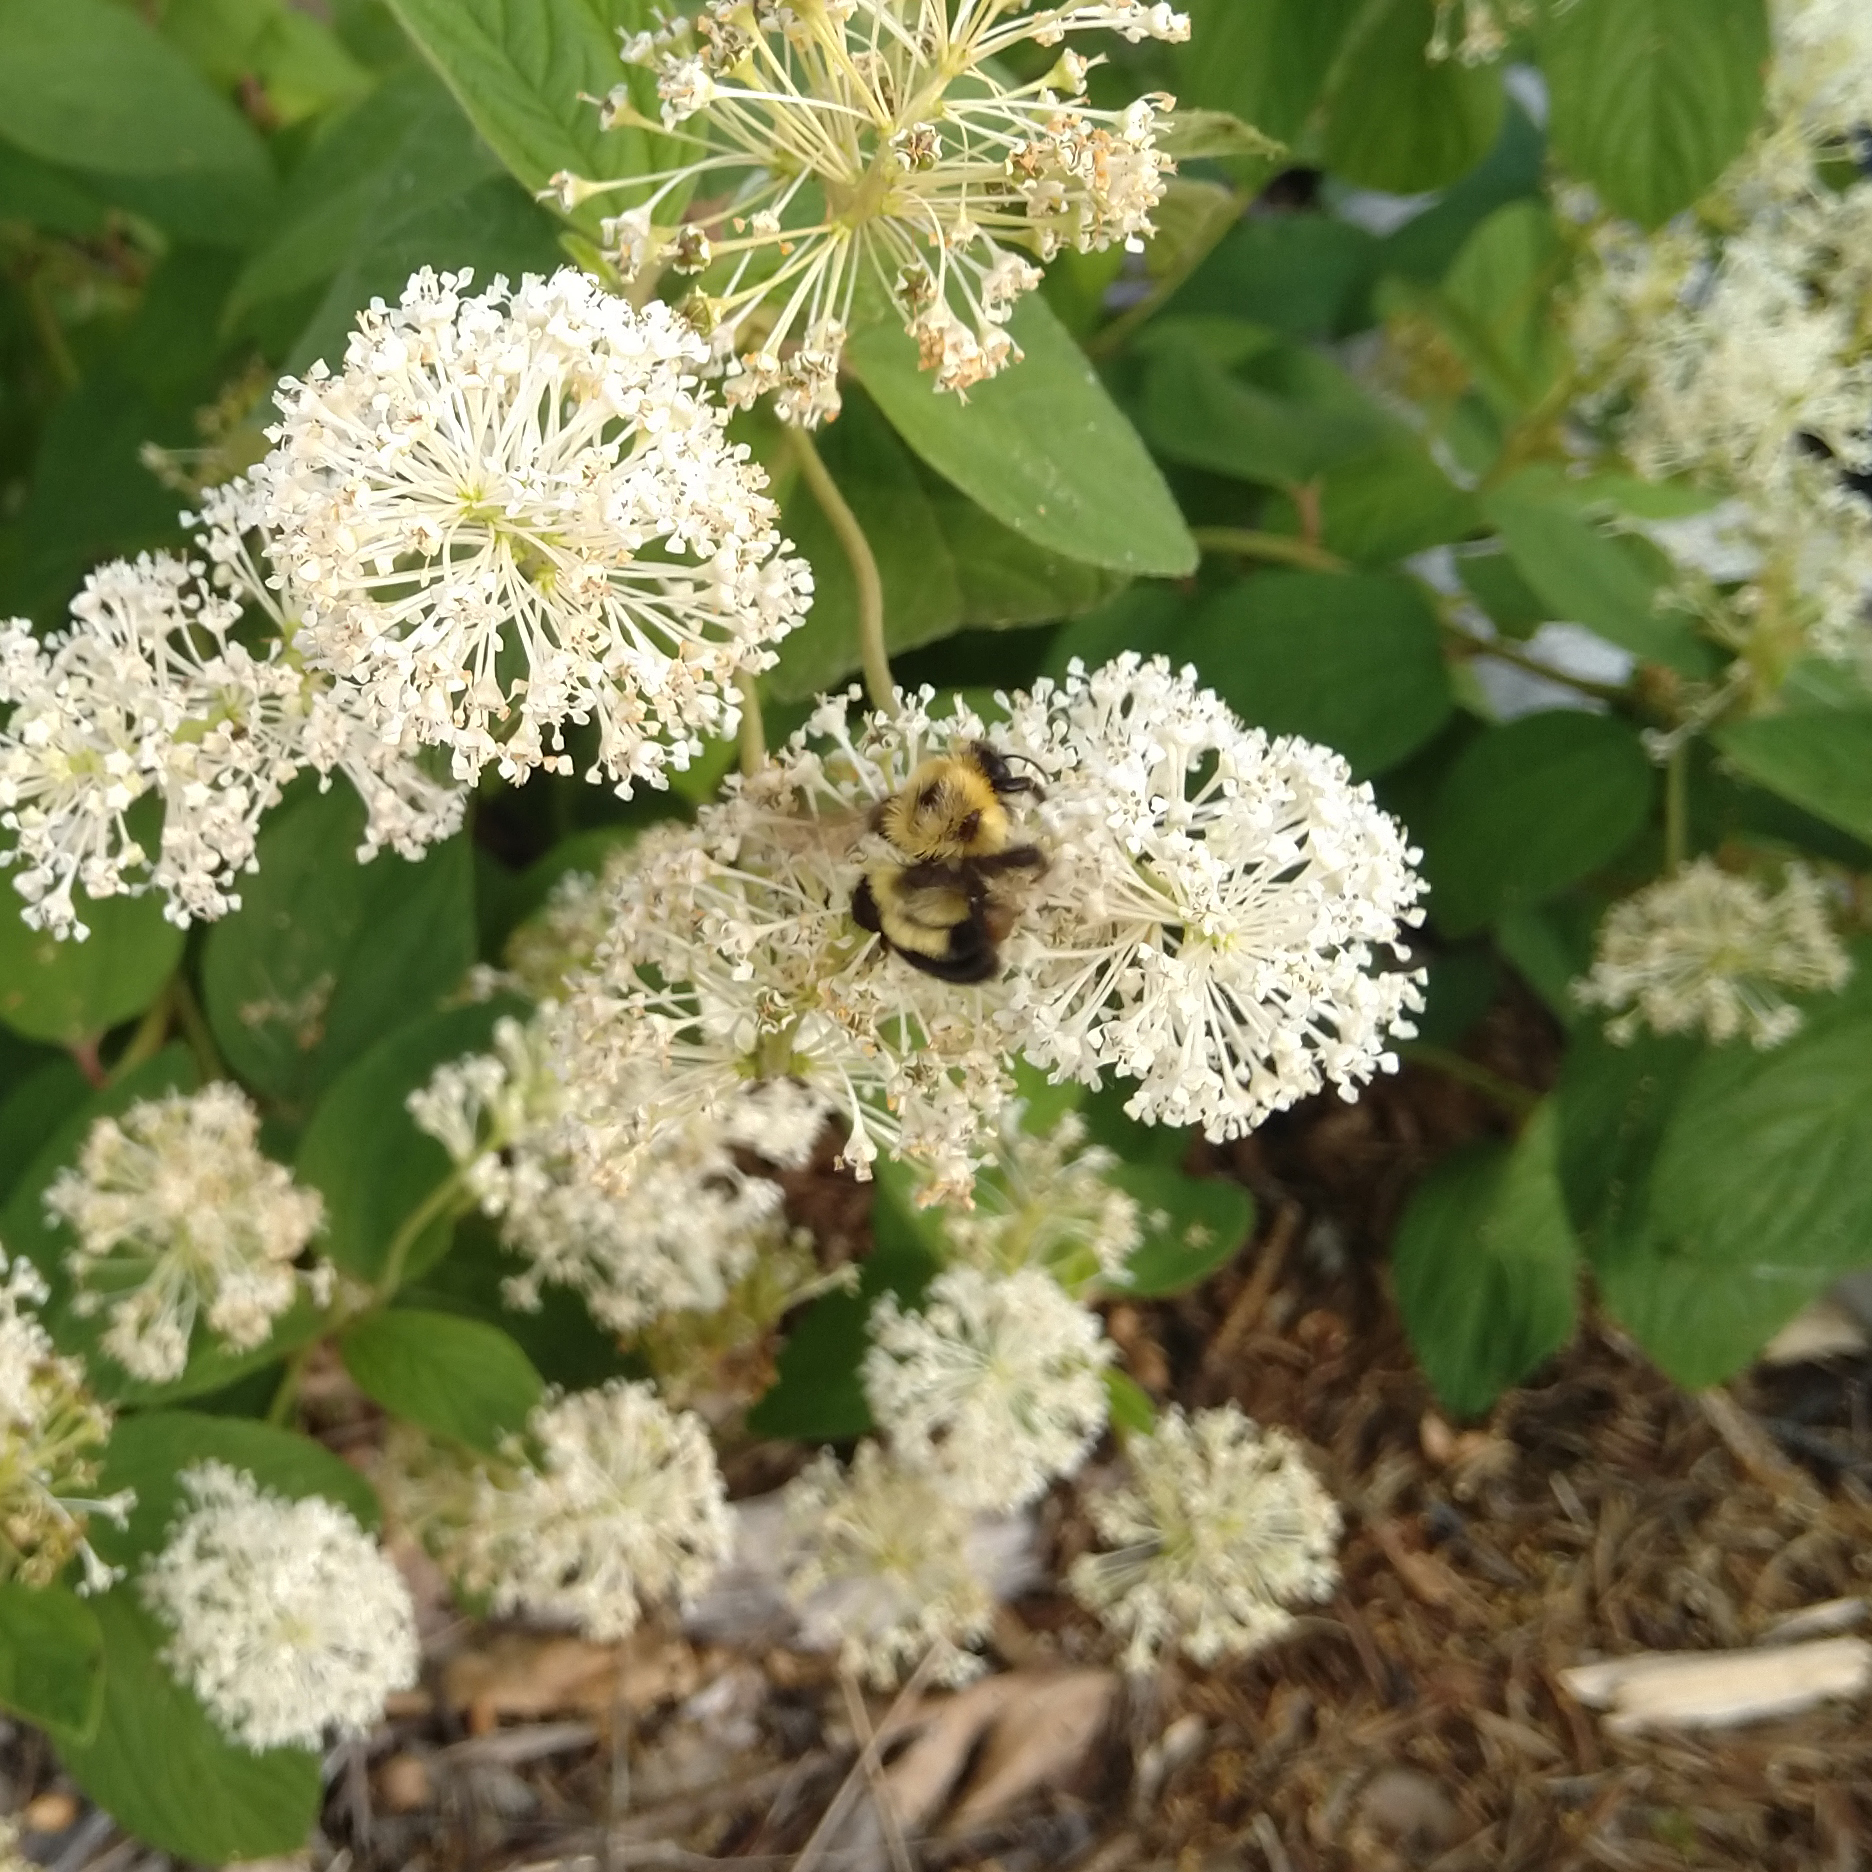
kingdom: Animalia
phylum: Arthropoda
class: Insecta
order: Hymenoptera
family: Apidae
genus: Bombus
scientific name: Bombus bimaculatus
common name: Two-spotted bumble bee
